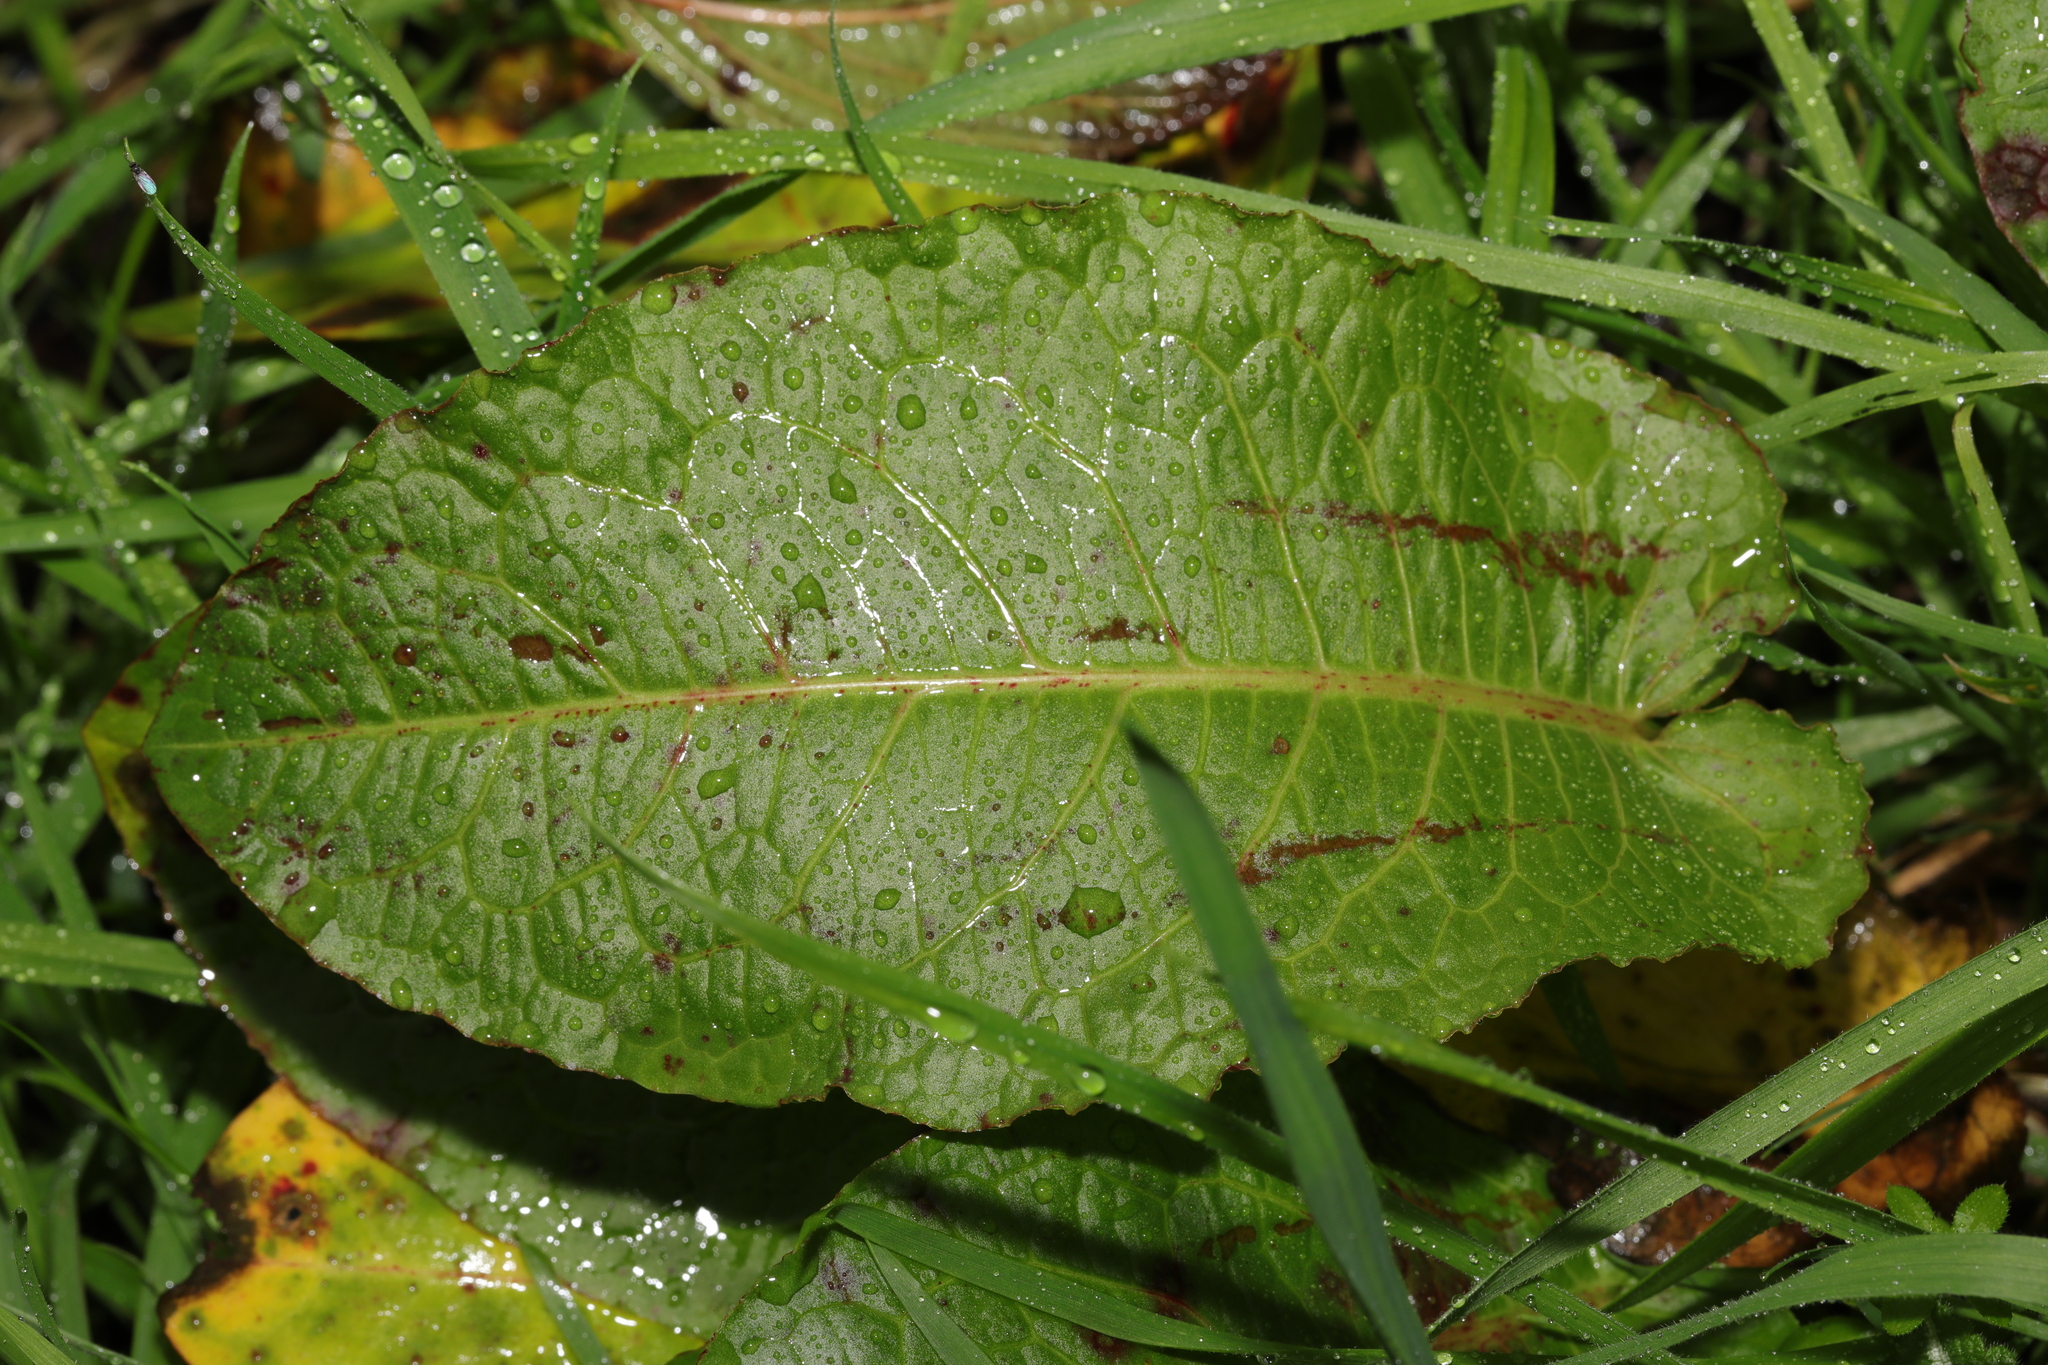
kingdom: Plantae
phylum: Tracheophyta
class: Magnoliopsida
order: Caryophyllales
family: Polygonaceae
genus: Rumex
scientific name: Rumex obtusifolius
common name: Bitter dock
